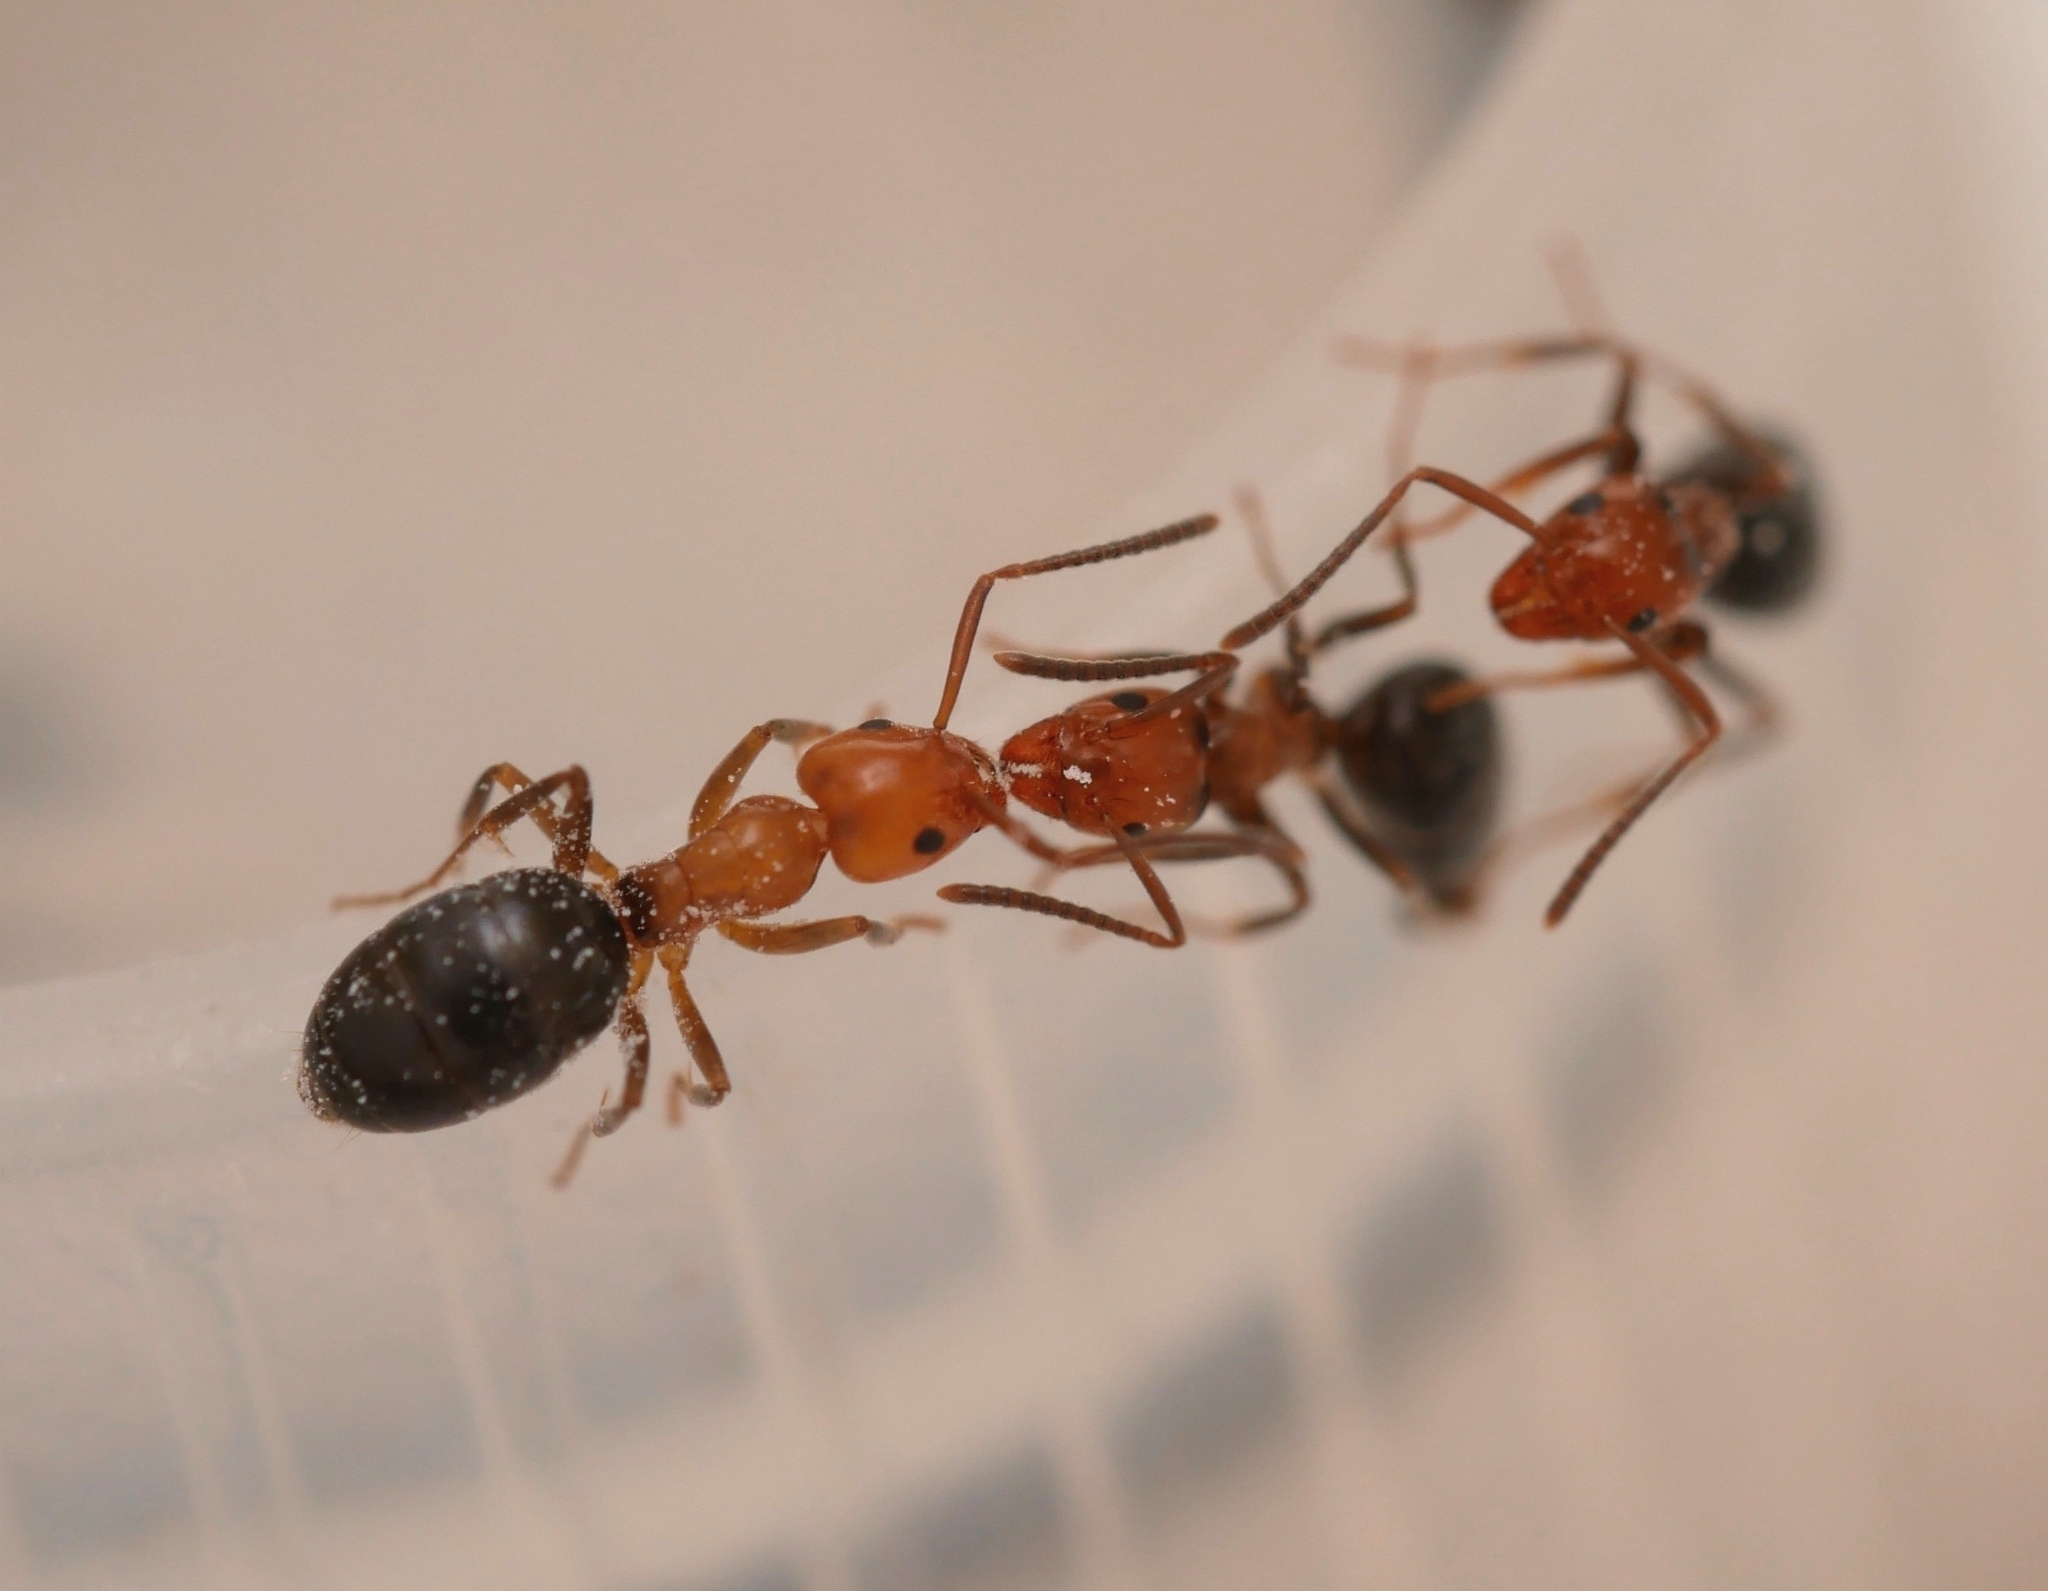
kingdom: Animalia
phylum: Arthropoda
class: Insecta
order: Hymenoptera
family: Formicidae
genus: Tapinoma
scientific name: Tapinoma schreiberi
